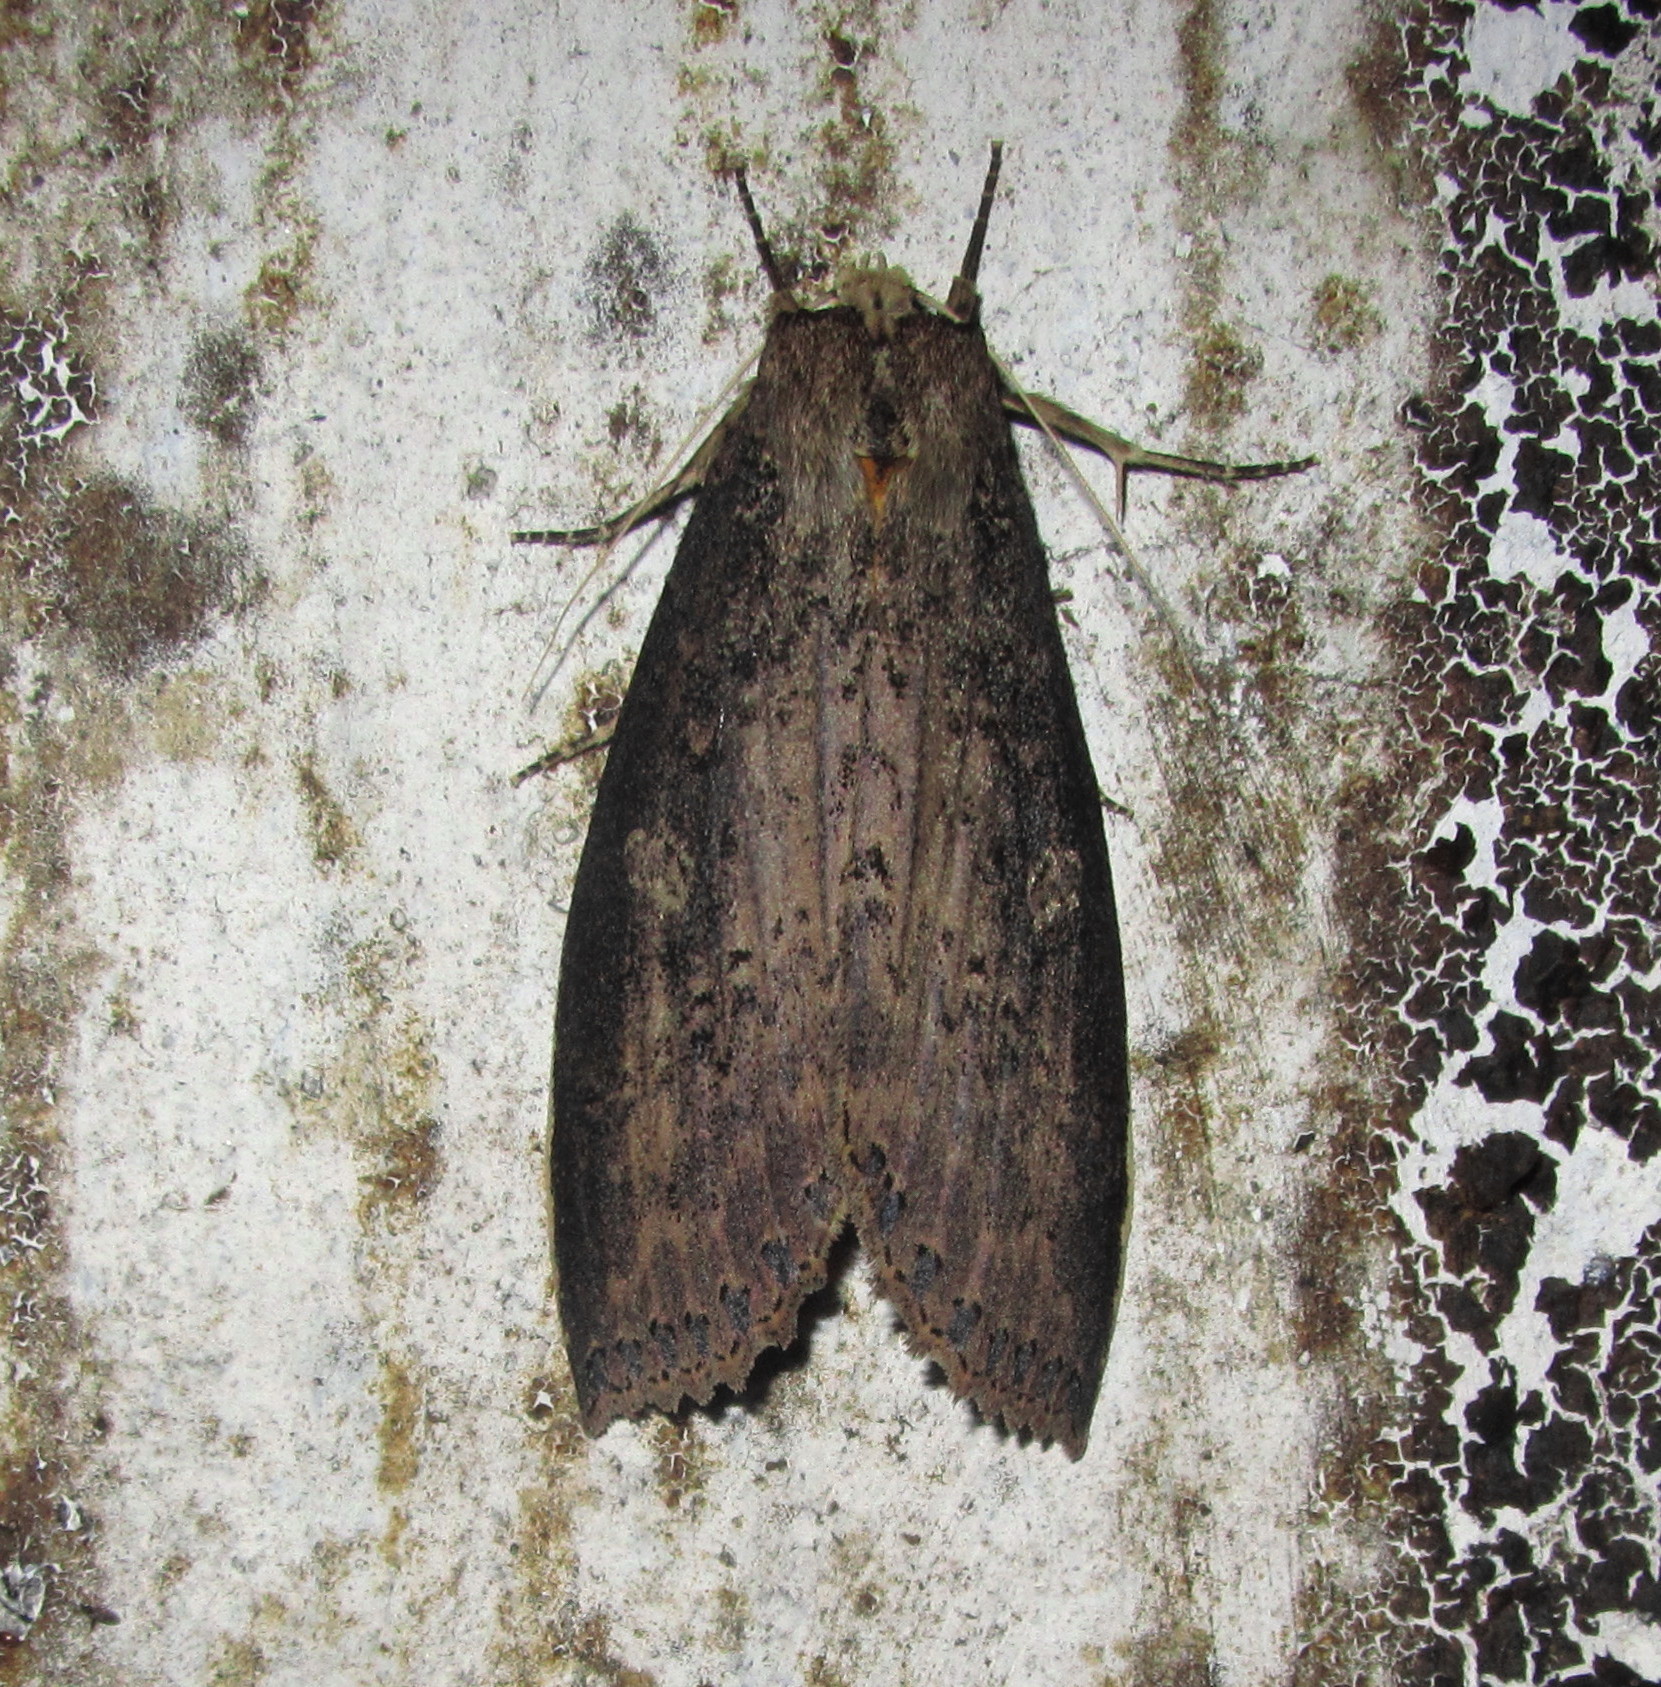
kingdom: Animalia
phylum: Arthropoda
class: Insecta
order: Lepidoptera
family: Notodontidae
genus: Baradesa
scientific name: Baradesa lithosioides
